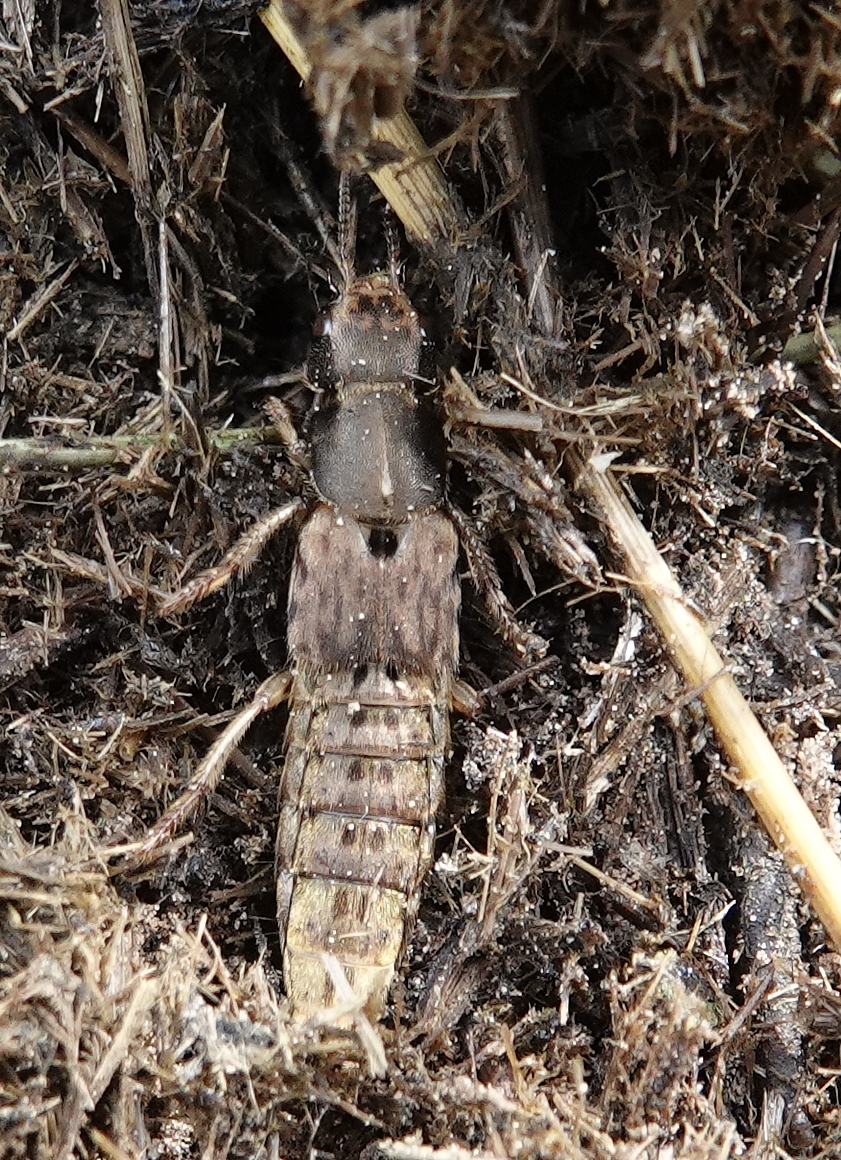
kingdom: Animalia
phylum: Arthropoda
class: Insecta
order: Coleoptera
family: Staphylinidae
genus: Platydracus
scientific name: Platydracus maculosus
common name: Brown rove beetle
